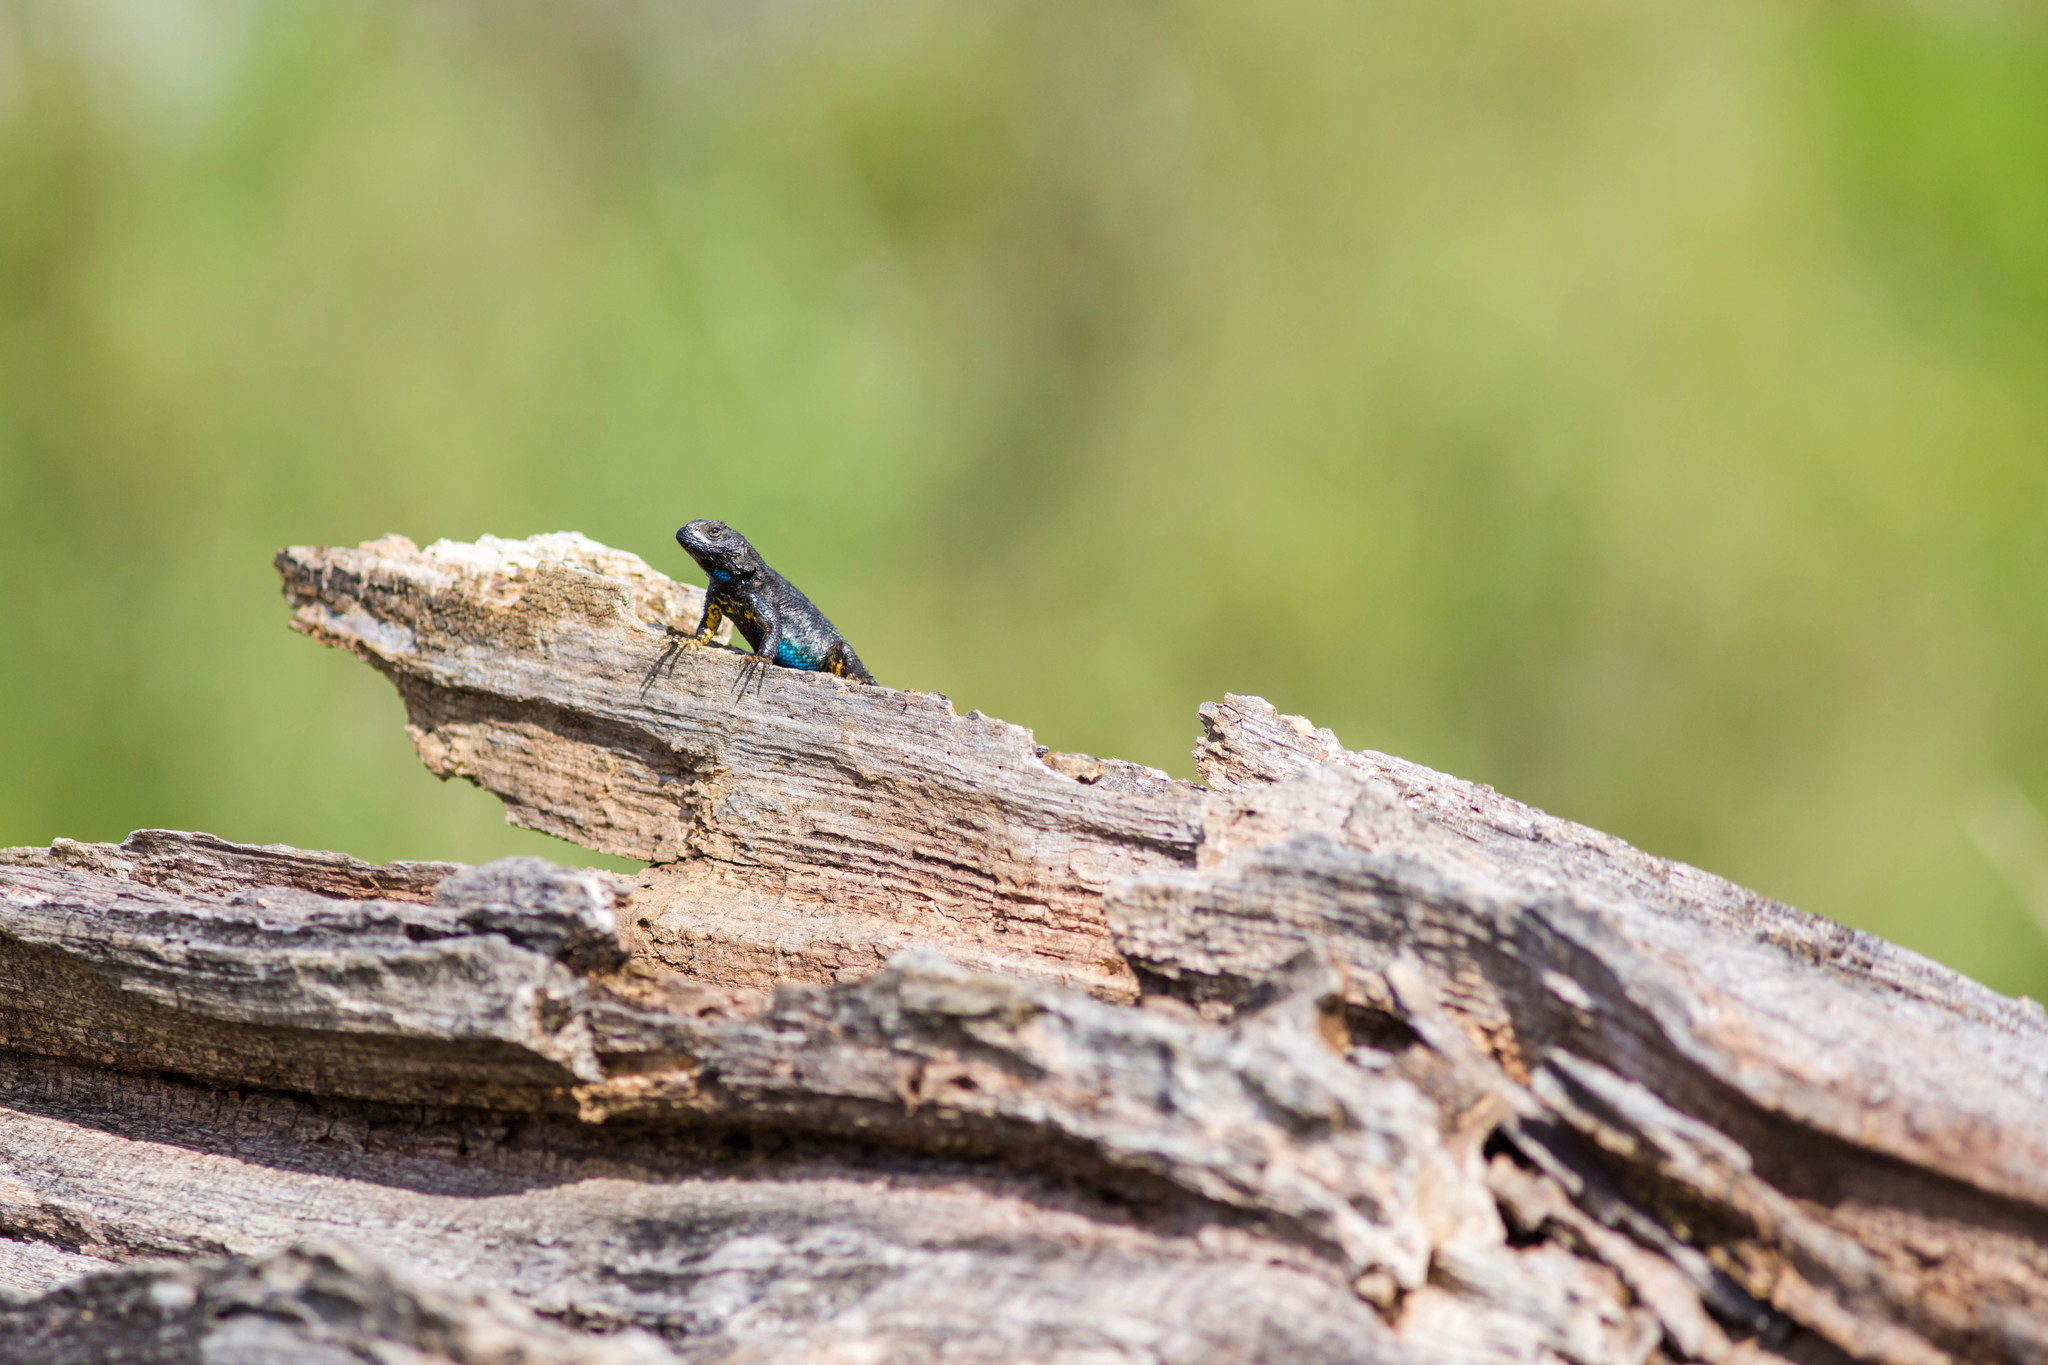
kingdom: Animalia
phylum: Chordata
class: Squamata
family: Phrynosomatidae
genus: Sceloporus
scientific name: Sceloporus occidentalis
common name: Western fence lizard
